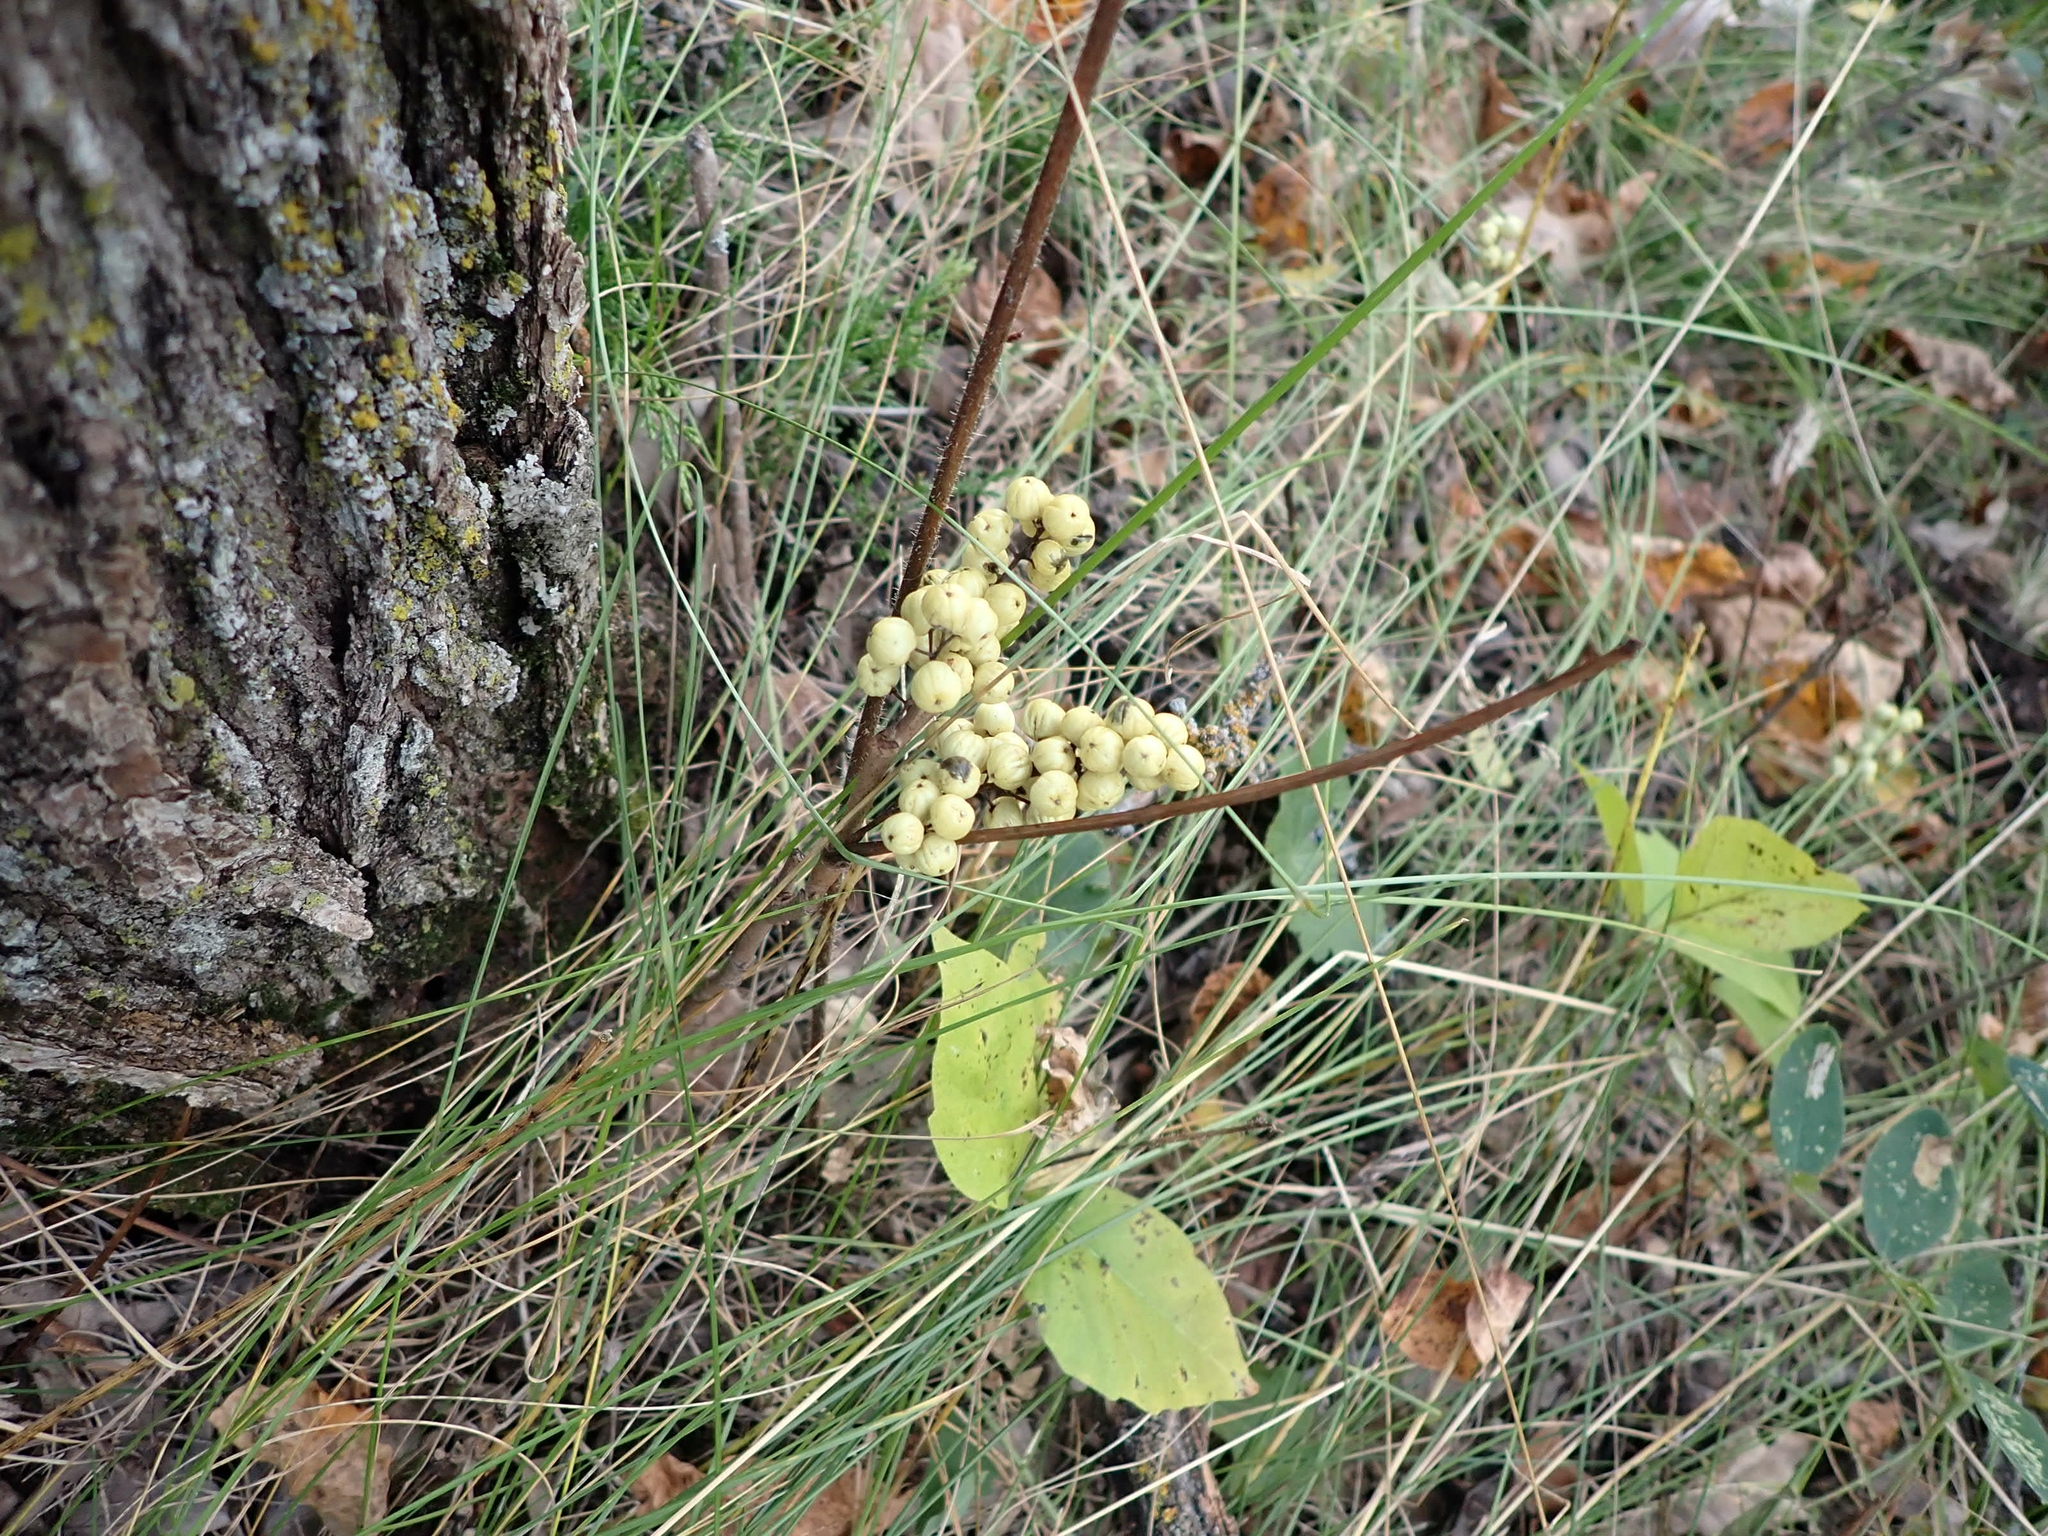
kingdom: Plantae
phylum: Tracheophyta
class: Magnoliopsida
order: Sapindales
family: Anacardiaceae
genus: Toxicodendron
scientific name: Toxicodendron rydbergii
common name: Rydberg's poison-ivy
